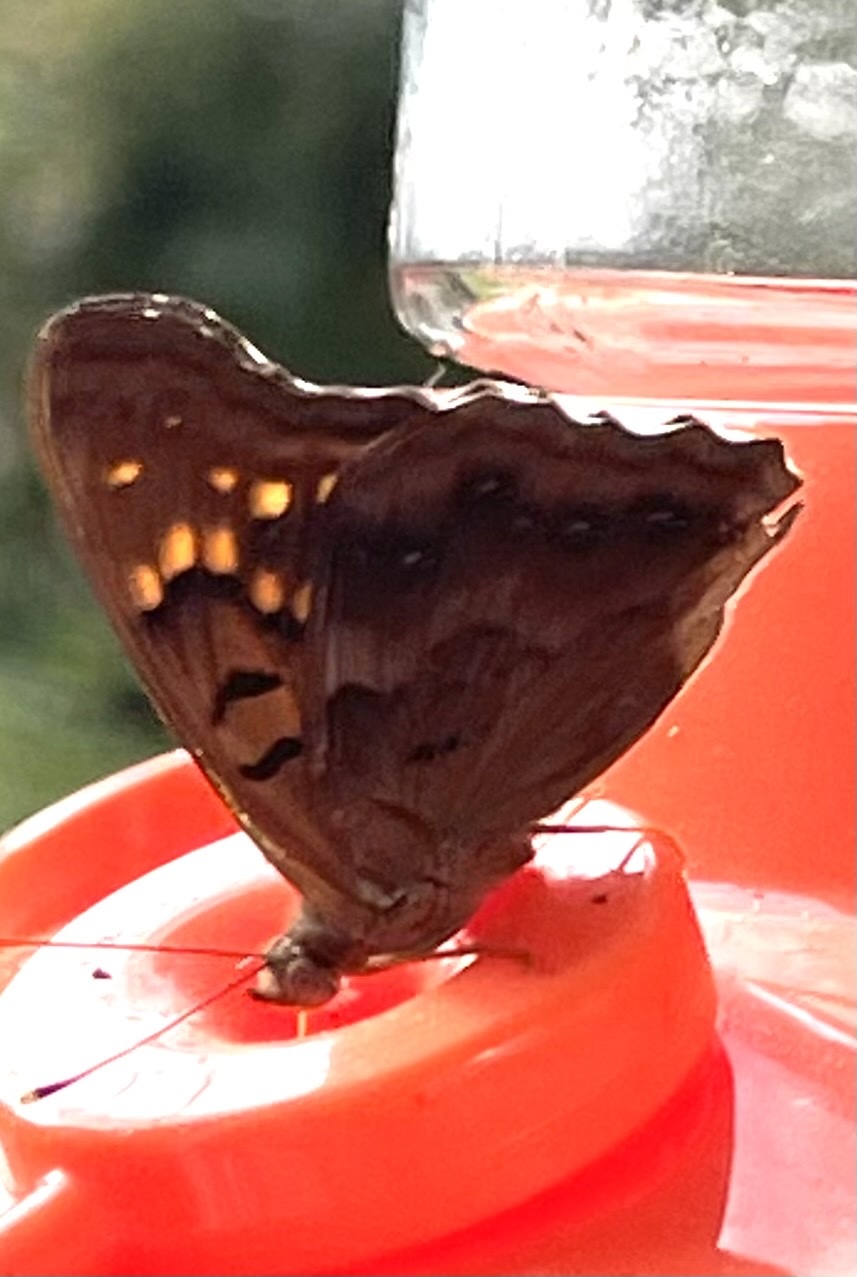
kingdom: Animalia
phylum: Arthropoda
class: Insecta
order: Lepidoptera
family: Nymphalidae
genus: Asterocampa
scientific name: Asterocampa clyton
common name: Tawny emperor
